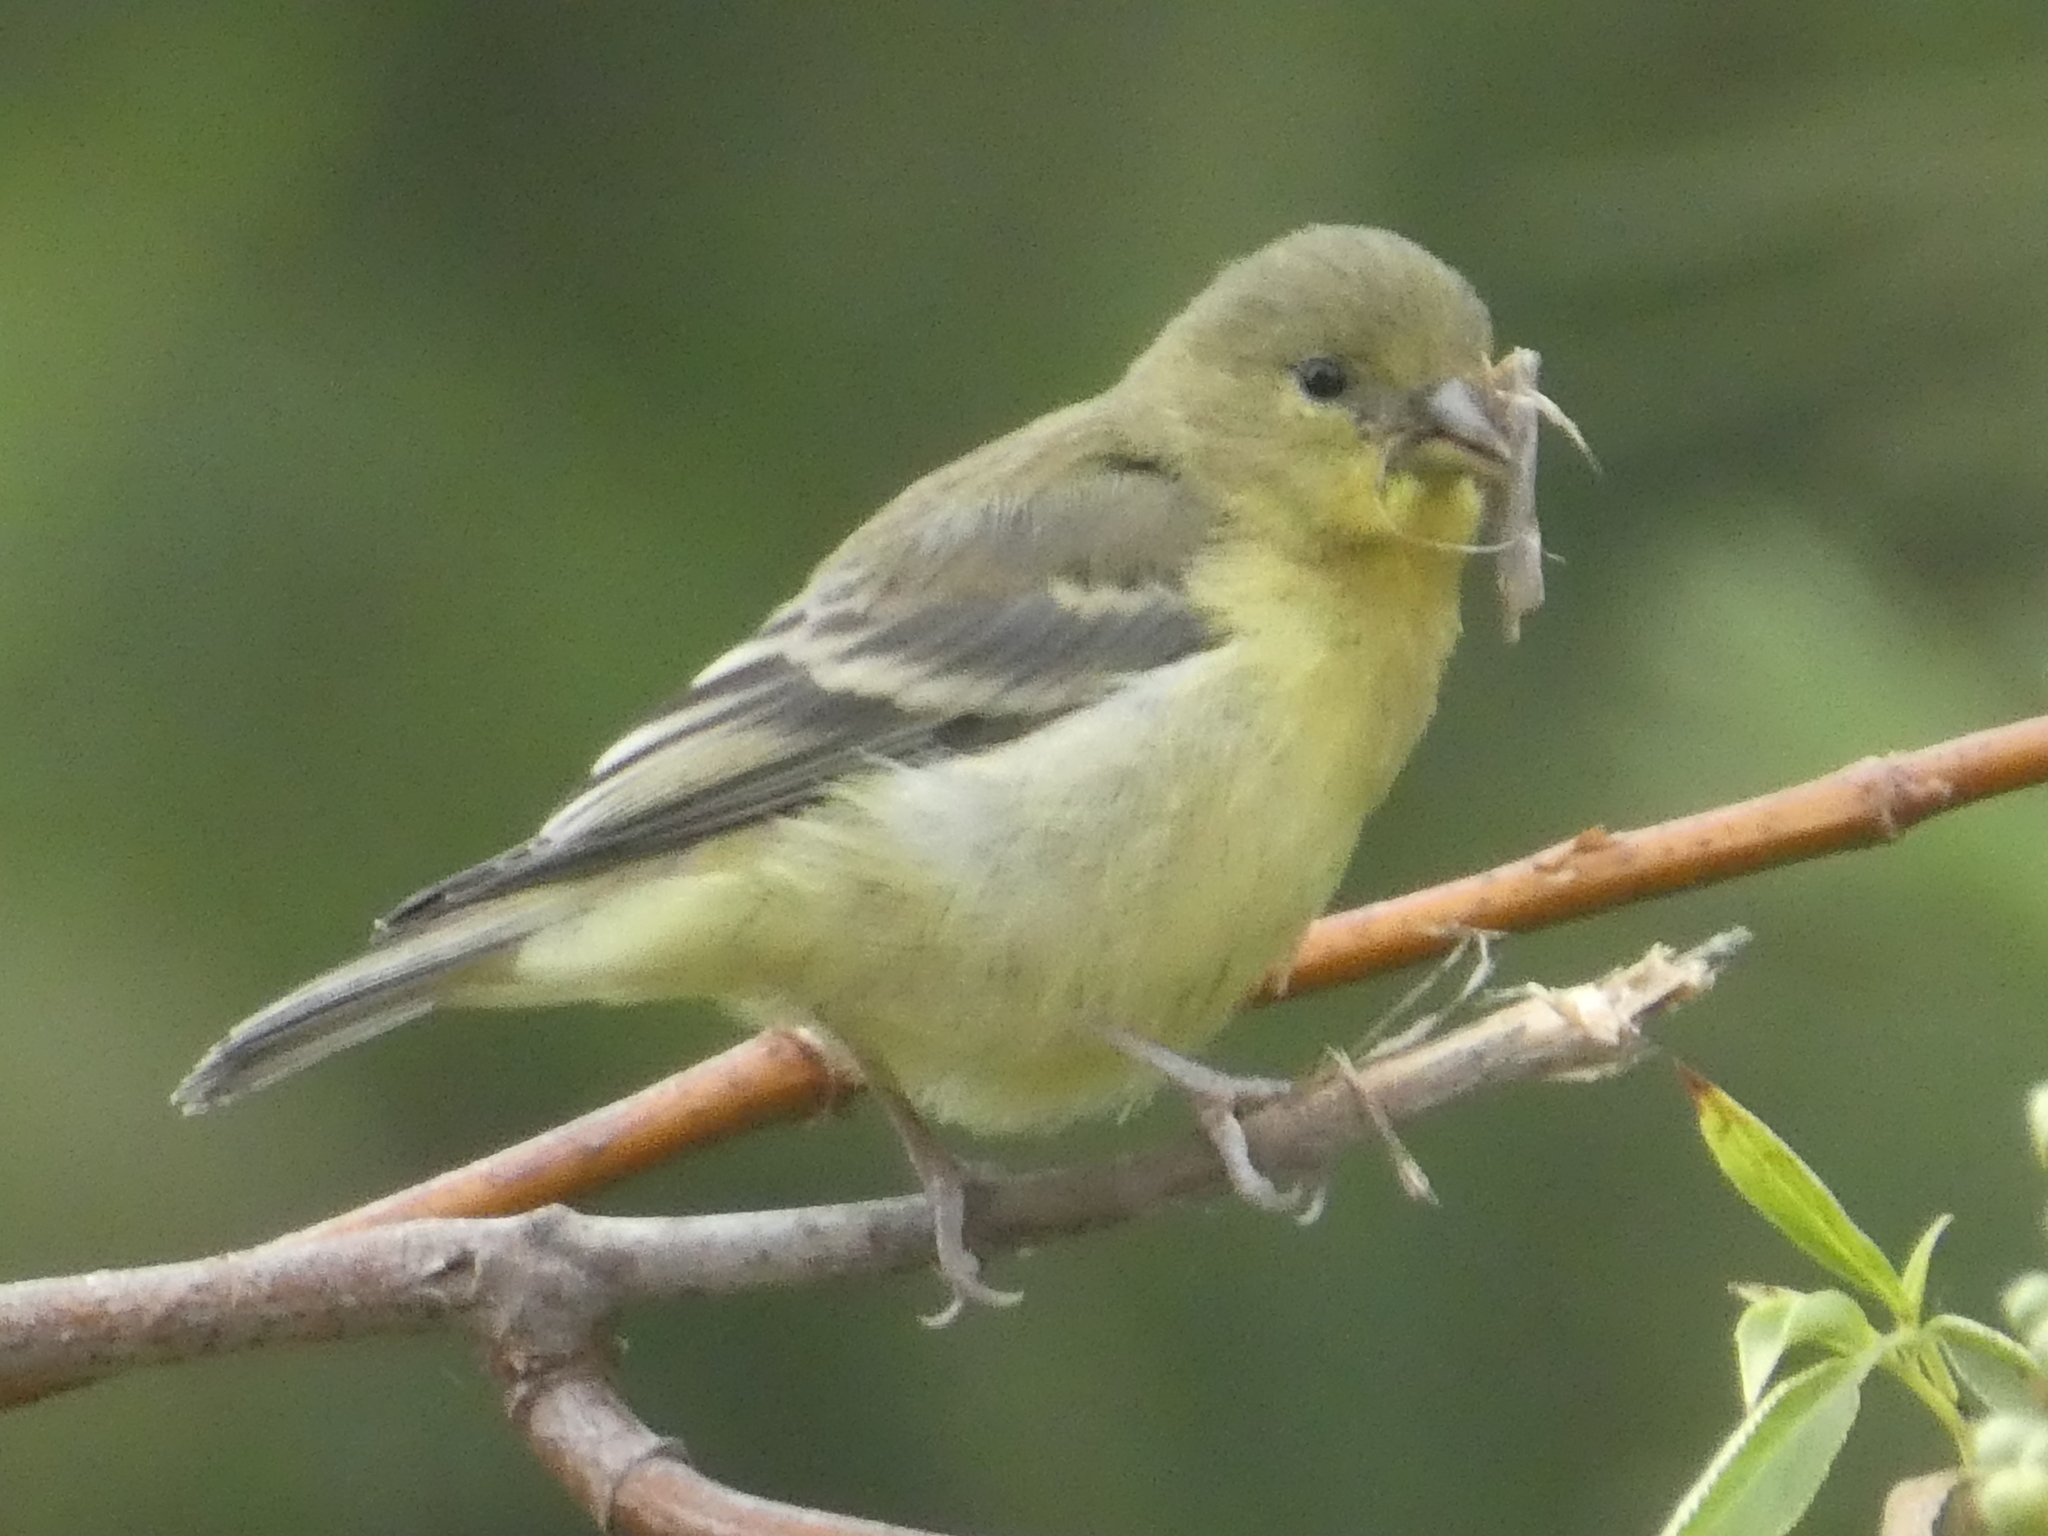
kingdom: Animalia
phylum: Chordata
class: Aves
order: Passeriformes
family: Fringillidae
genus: Spinus
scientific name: Spinus psaltria
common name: Lesser goldfinch
